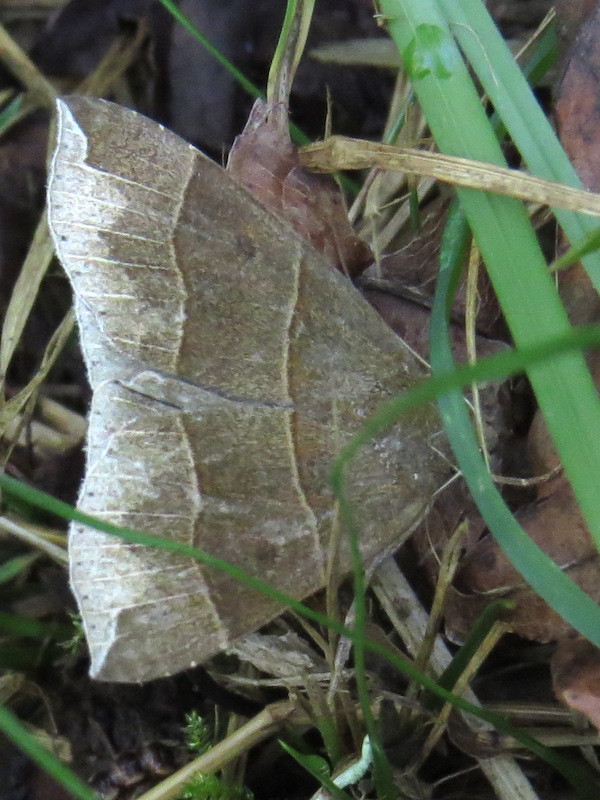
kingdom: Animalia
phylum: Arthropoda
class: Insecta
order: Lepidoptera
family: Erebidae
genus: Parallelia
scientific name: Parallelia bistriaris
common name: Maple looper moth
